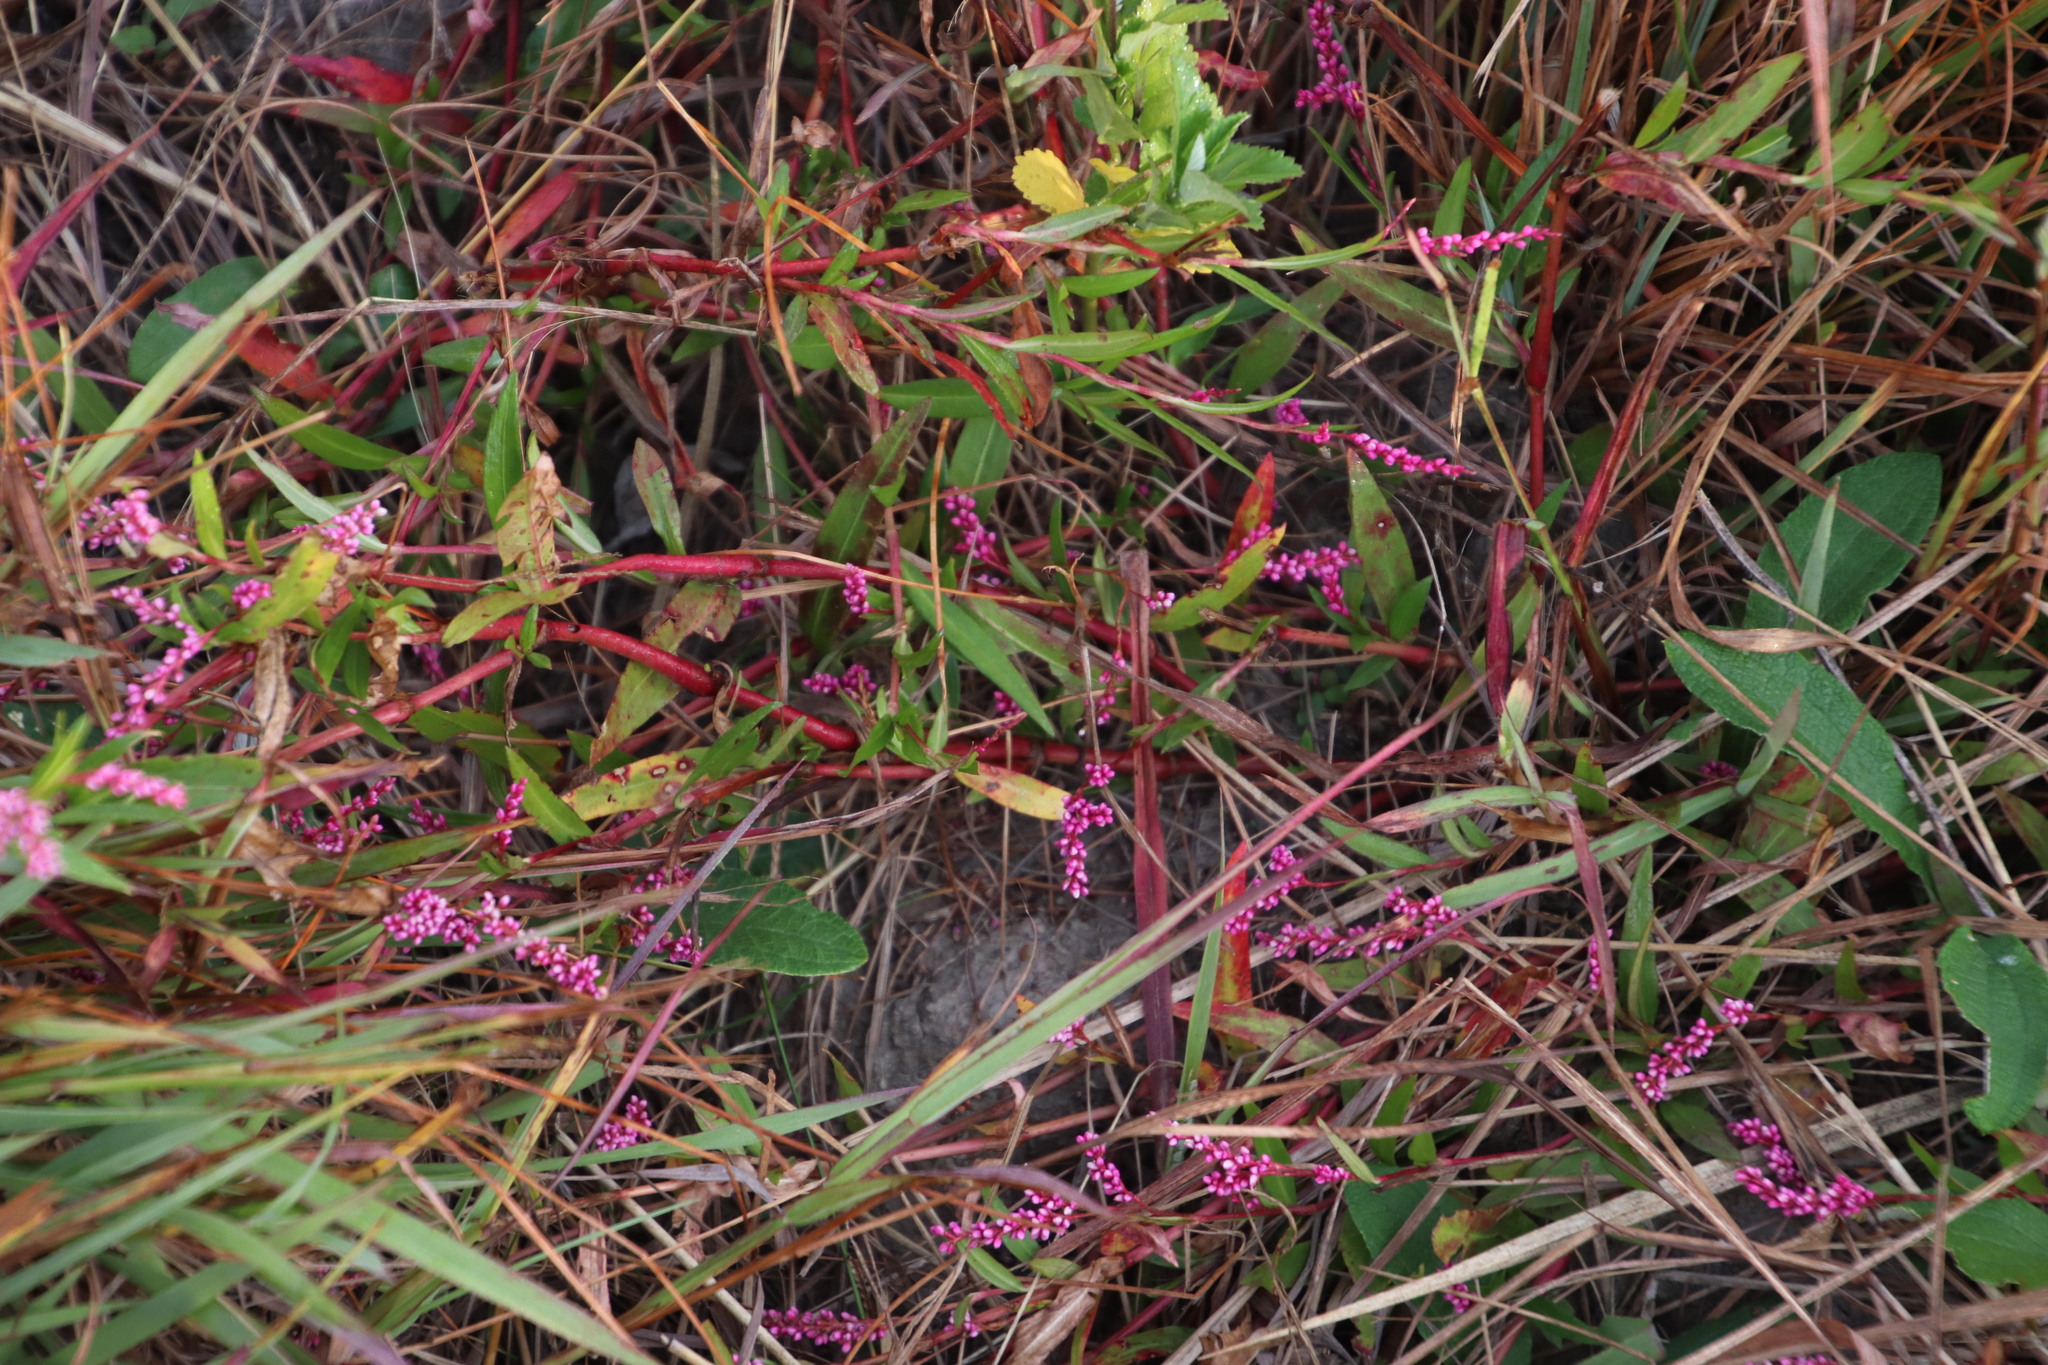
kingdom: Plantae
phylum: Tracheophyta
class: Magnoliopsida
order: Caryophyllales
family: Polygonaceae
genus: Persicaria
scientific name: Persicaria decipiens
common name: Willow-weed
